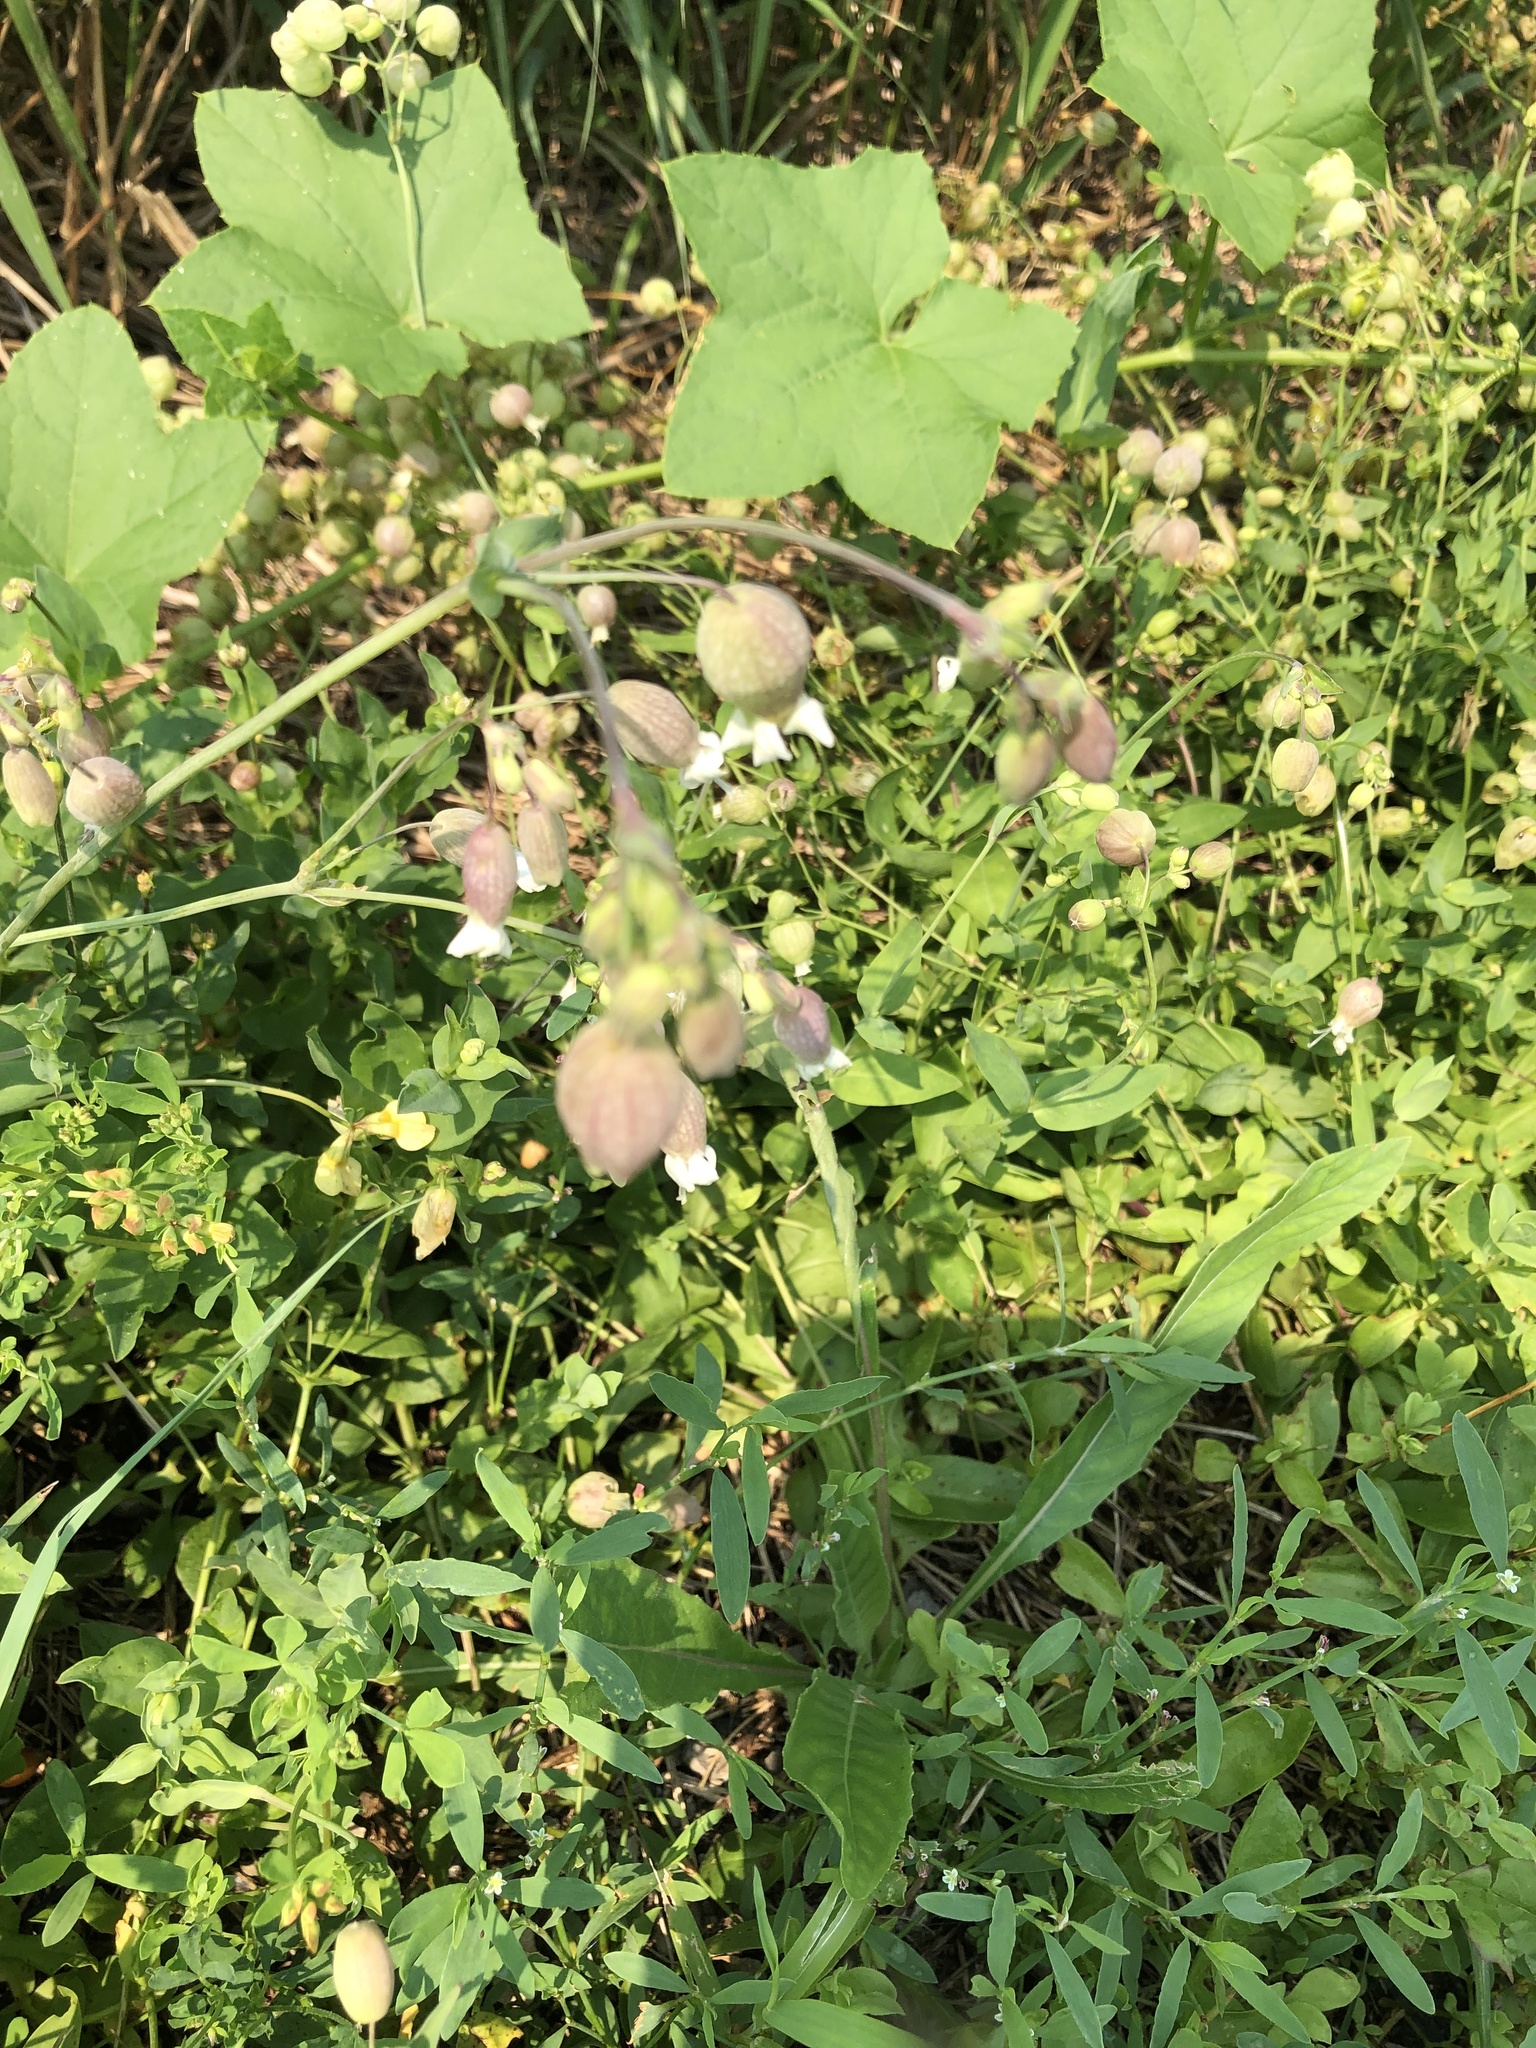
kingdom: Plantae
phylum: Tracheophyta
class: Magnoliopsida
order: Caryophyllales
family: Caryophyllaceae
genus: Silene
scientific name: Silene vulgaris
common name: Bladder campion
